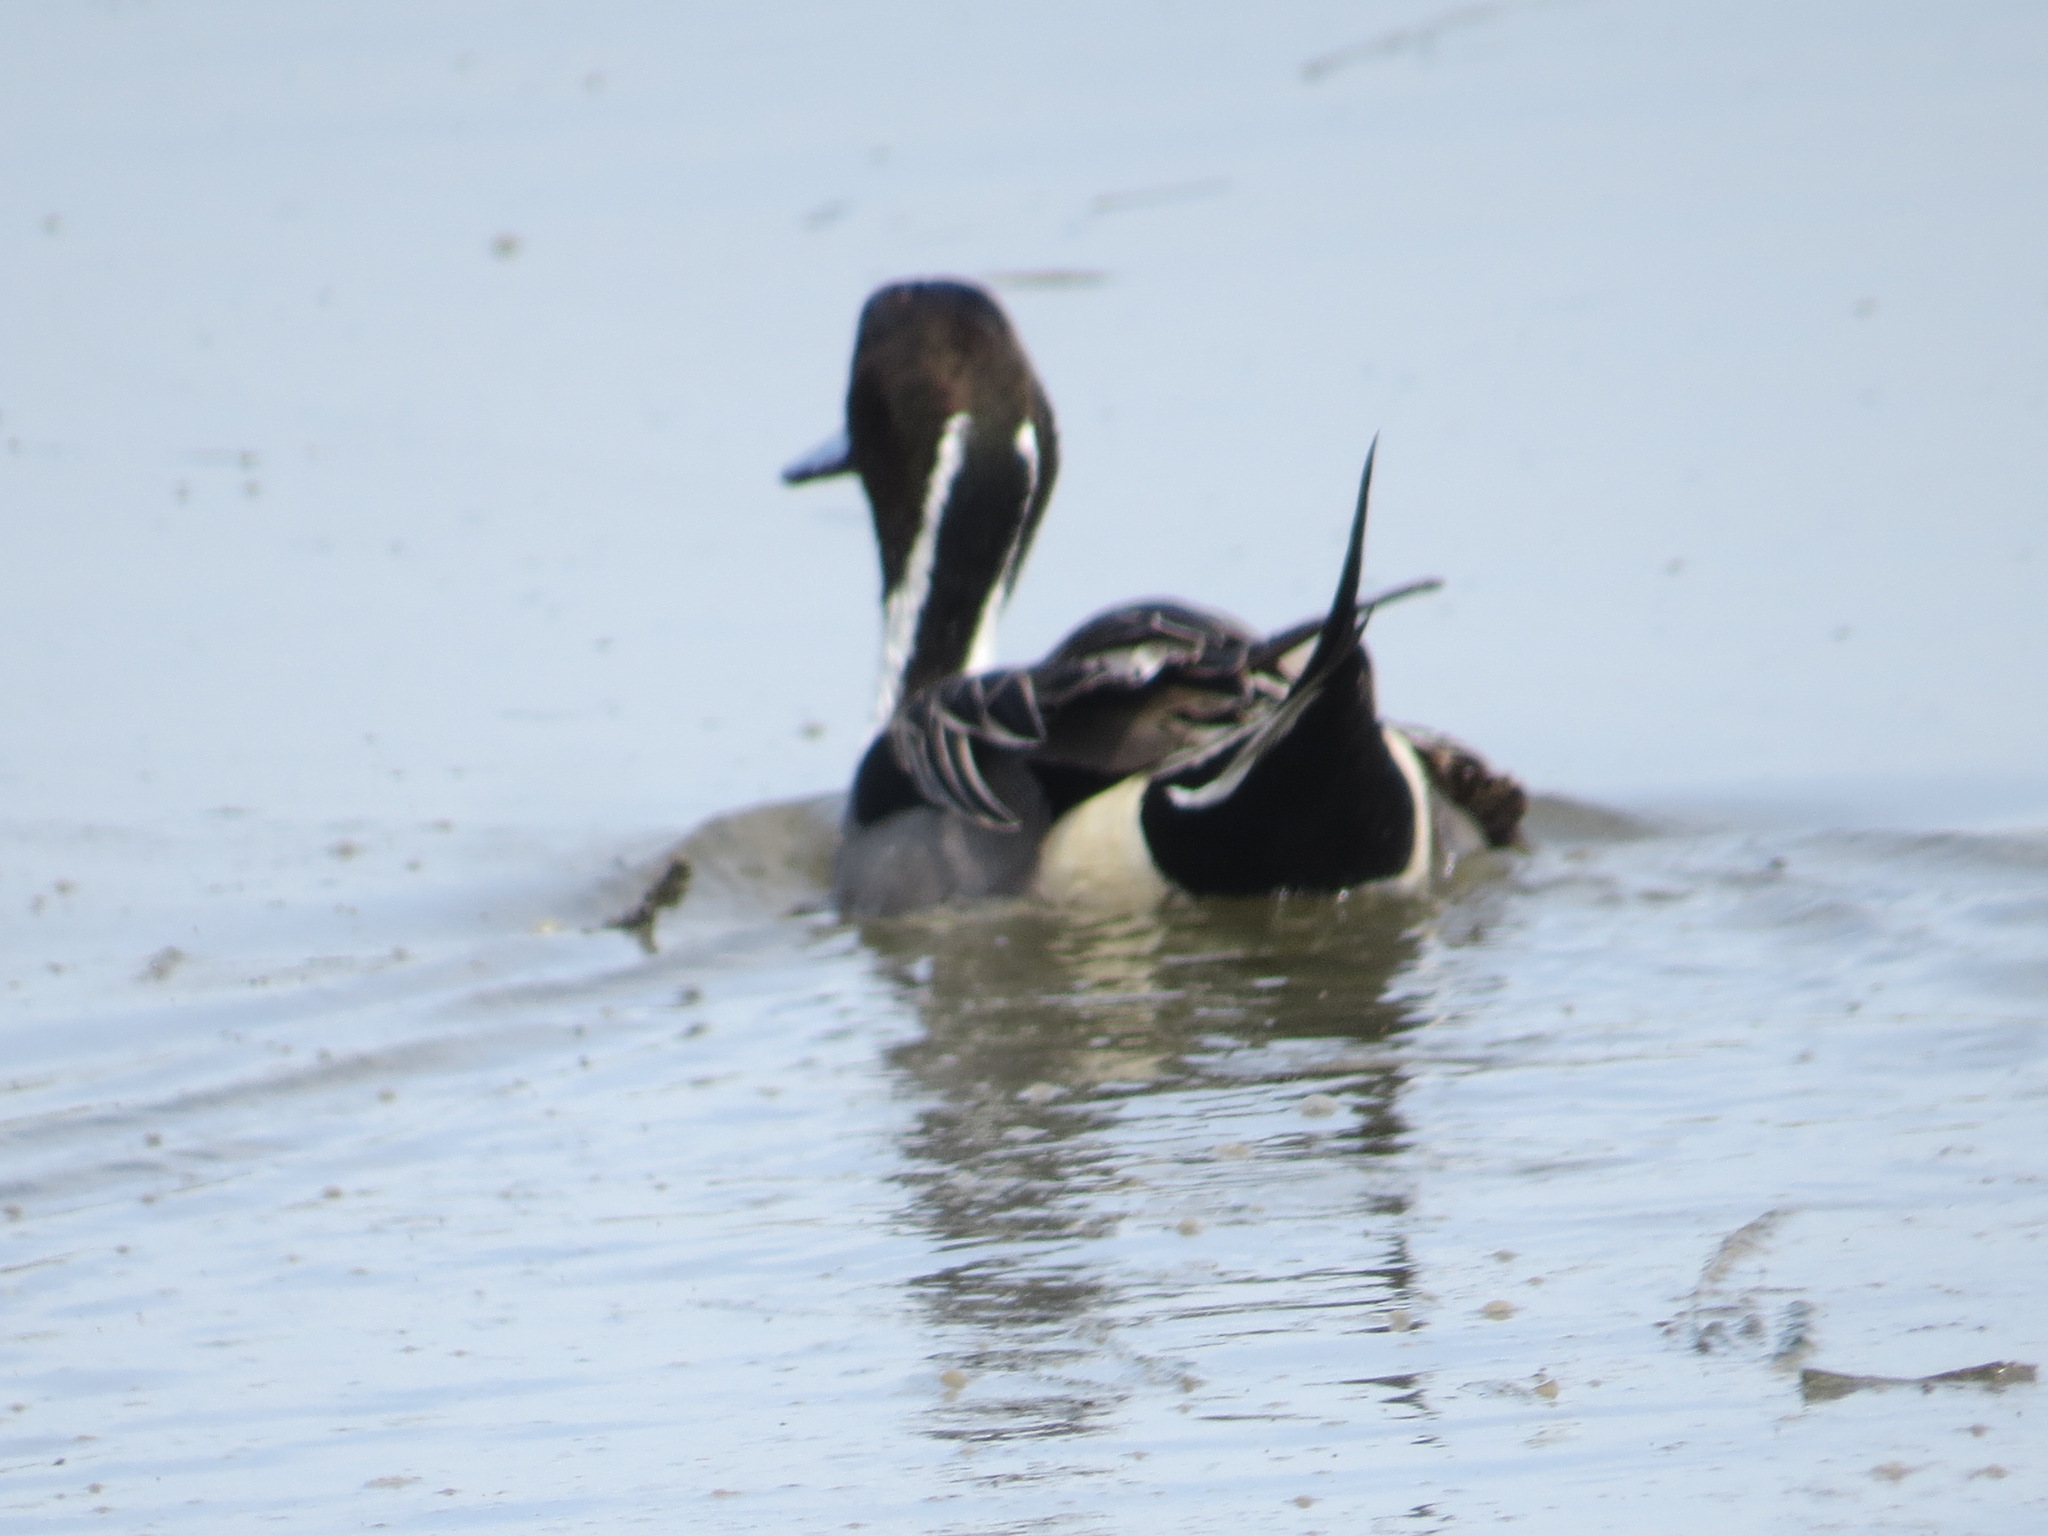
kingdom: Animalia
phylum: Chordata
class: Aves
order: Anseriformes
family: Anatidae
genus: Anas
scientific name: Anas acuta
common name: Northern pintail
